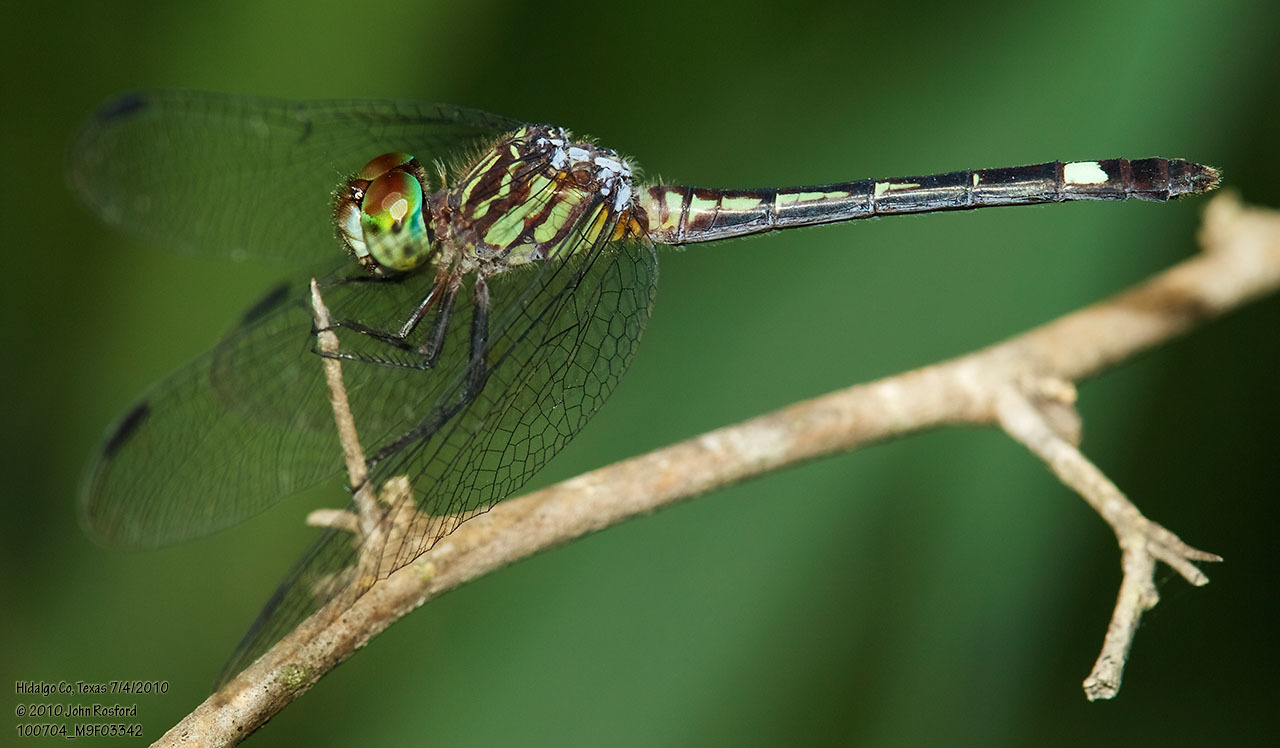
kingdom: Animalia
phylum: Arthropoda
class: Insecta
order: Odonata
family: Libellulidae
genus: Micrathyria
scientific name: Micrathyria didyma
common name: Three-striped dasher
